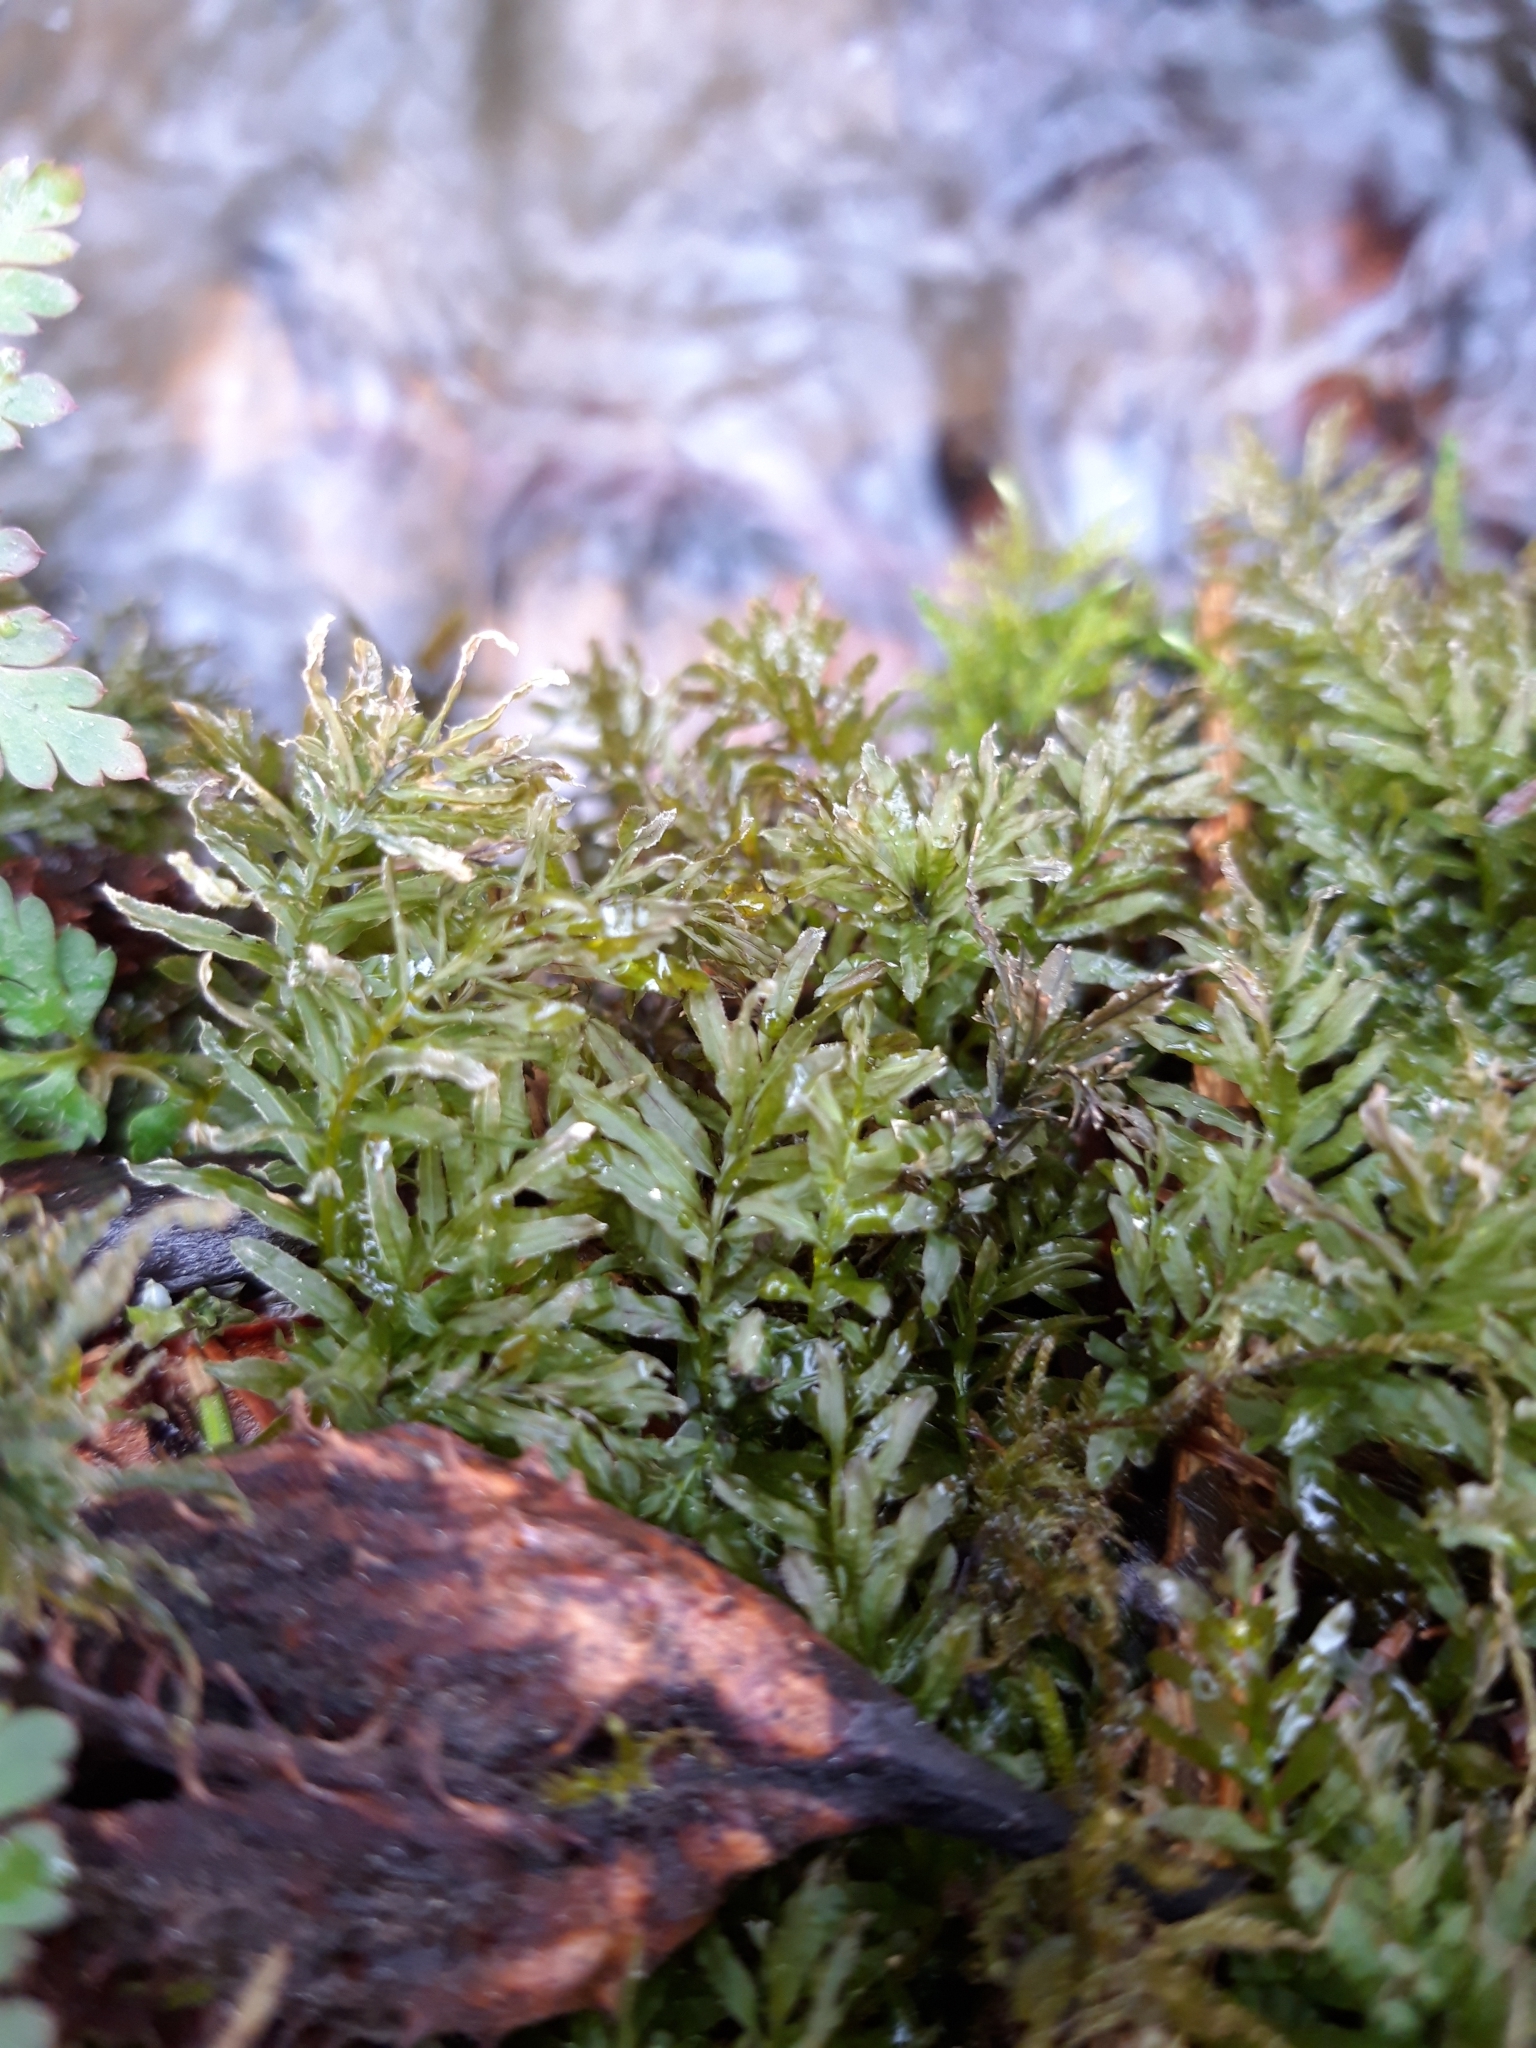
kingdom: Plantae
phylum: Bryophyta
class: Bryopsida
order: Bryales
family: Mniaceae
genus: Plagiomnium
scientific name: Plagiomnium undulatum
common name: Hart's-tongue thyme-moss
